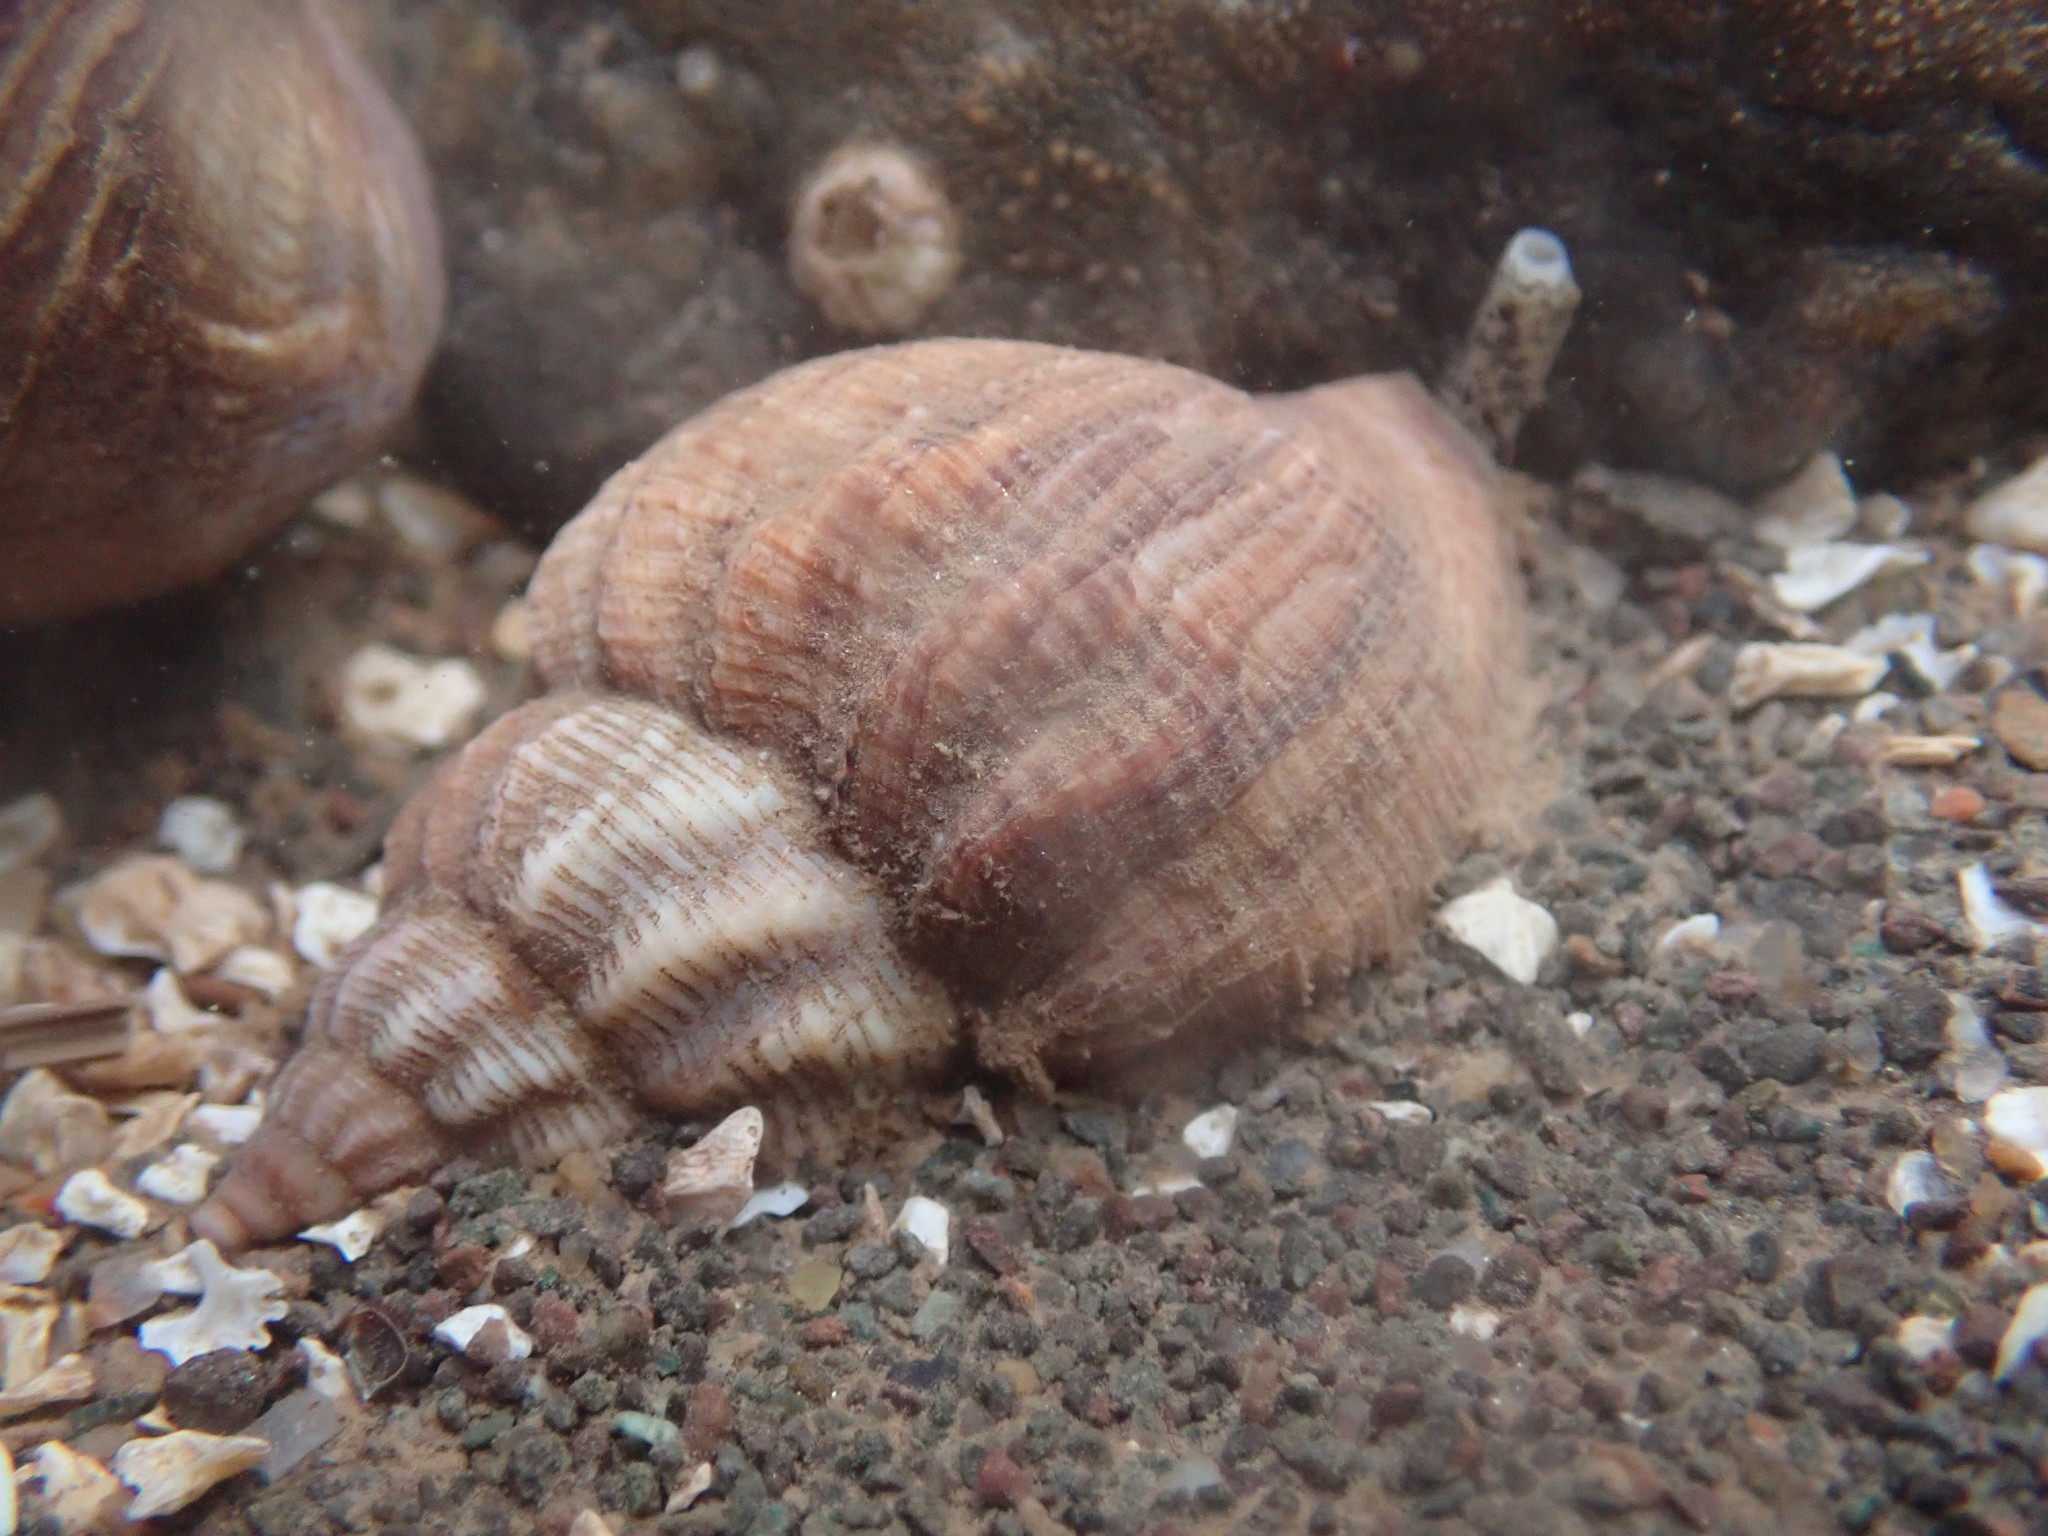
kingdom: Animalia
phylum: Mollusca
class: Gastropoda
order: Neogastropoda
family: Buccinidae
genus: Buccinum
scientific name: Buccinum undatum
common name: Common whelk
